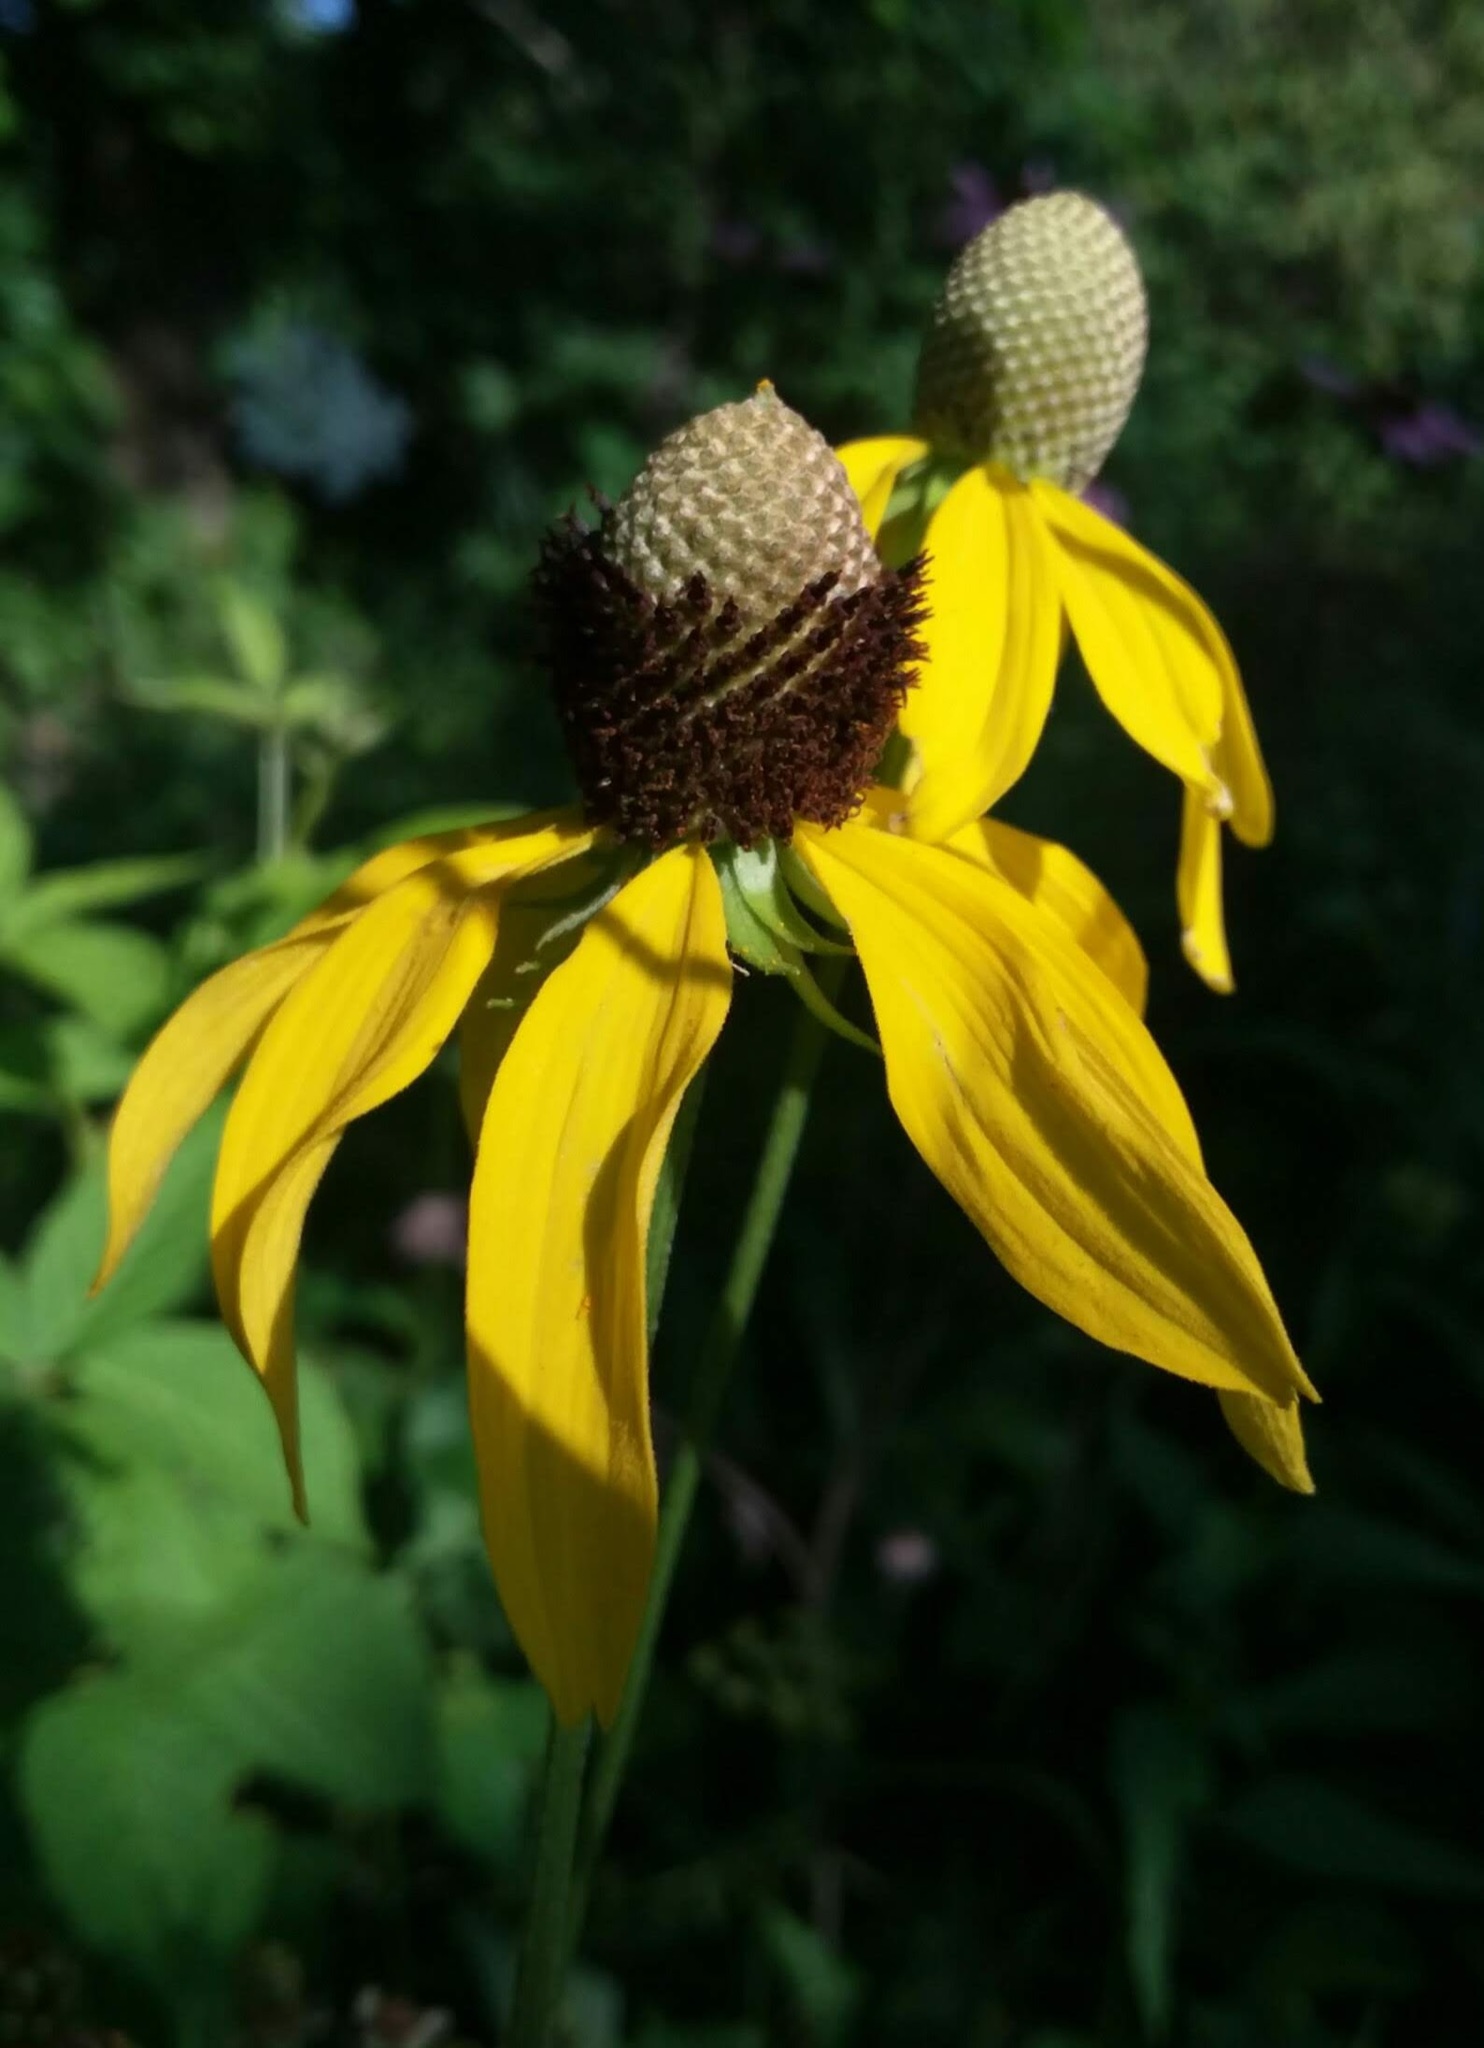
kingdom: Plantae
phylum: Tracheophyta
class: Magnoliopsida
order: Asterales
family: Asteraceae
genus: Ratibida
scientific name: Ratibida pinnata
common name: Drooping prairie-coneflower
